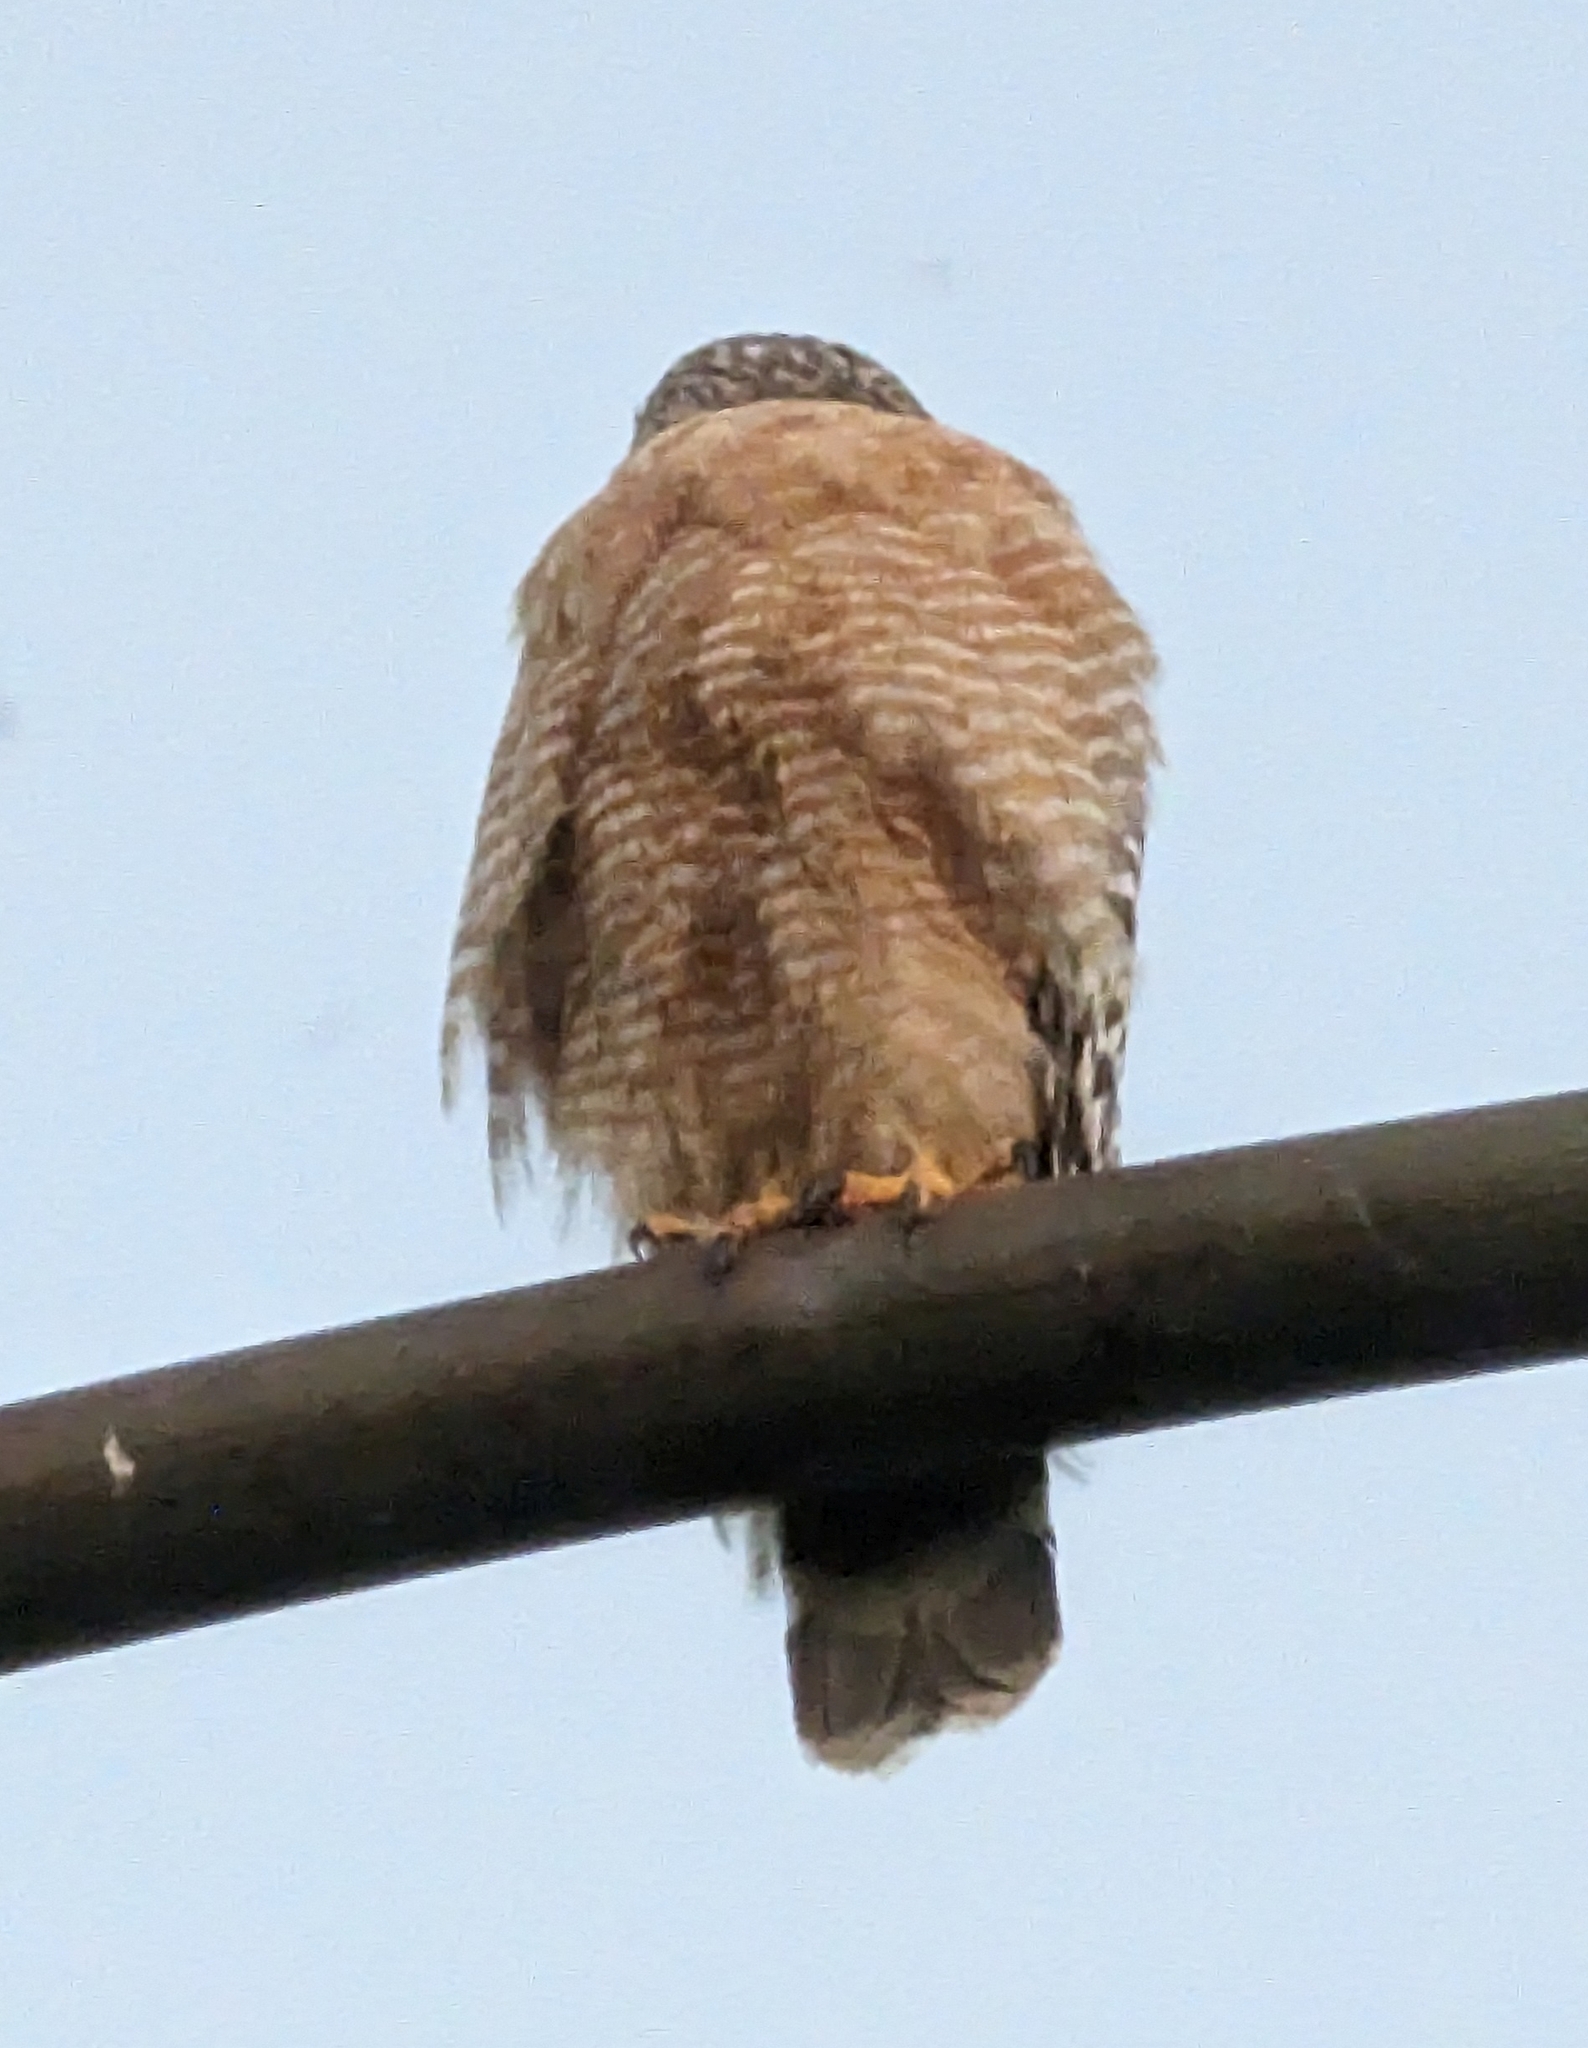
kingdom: Animalia
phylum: Chordata
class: Aves
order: Accipitriformes
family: Accipitridae
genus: Buteo
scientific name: Buteo lineatus
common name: Red-shouldered hawk
